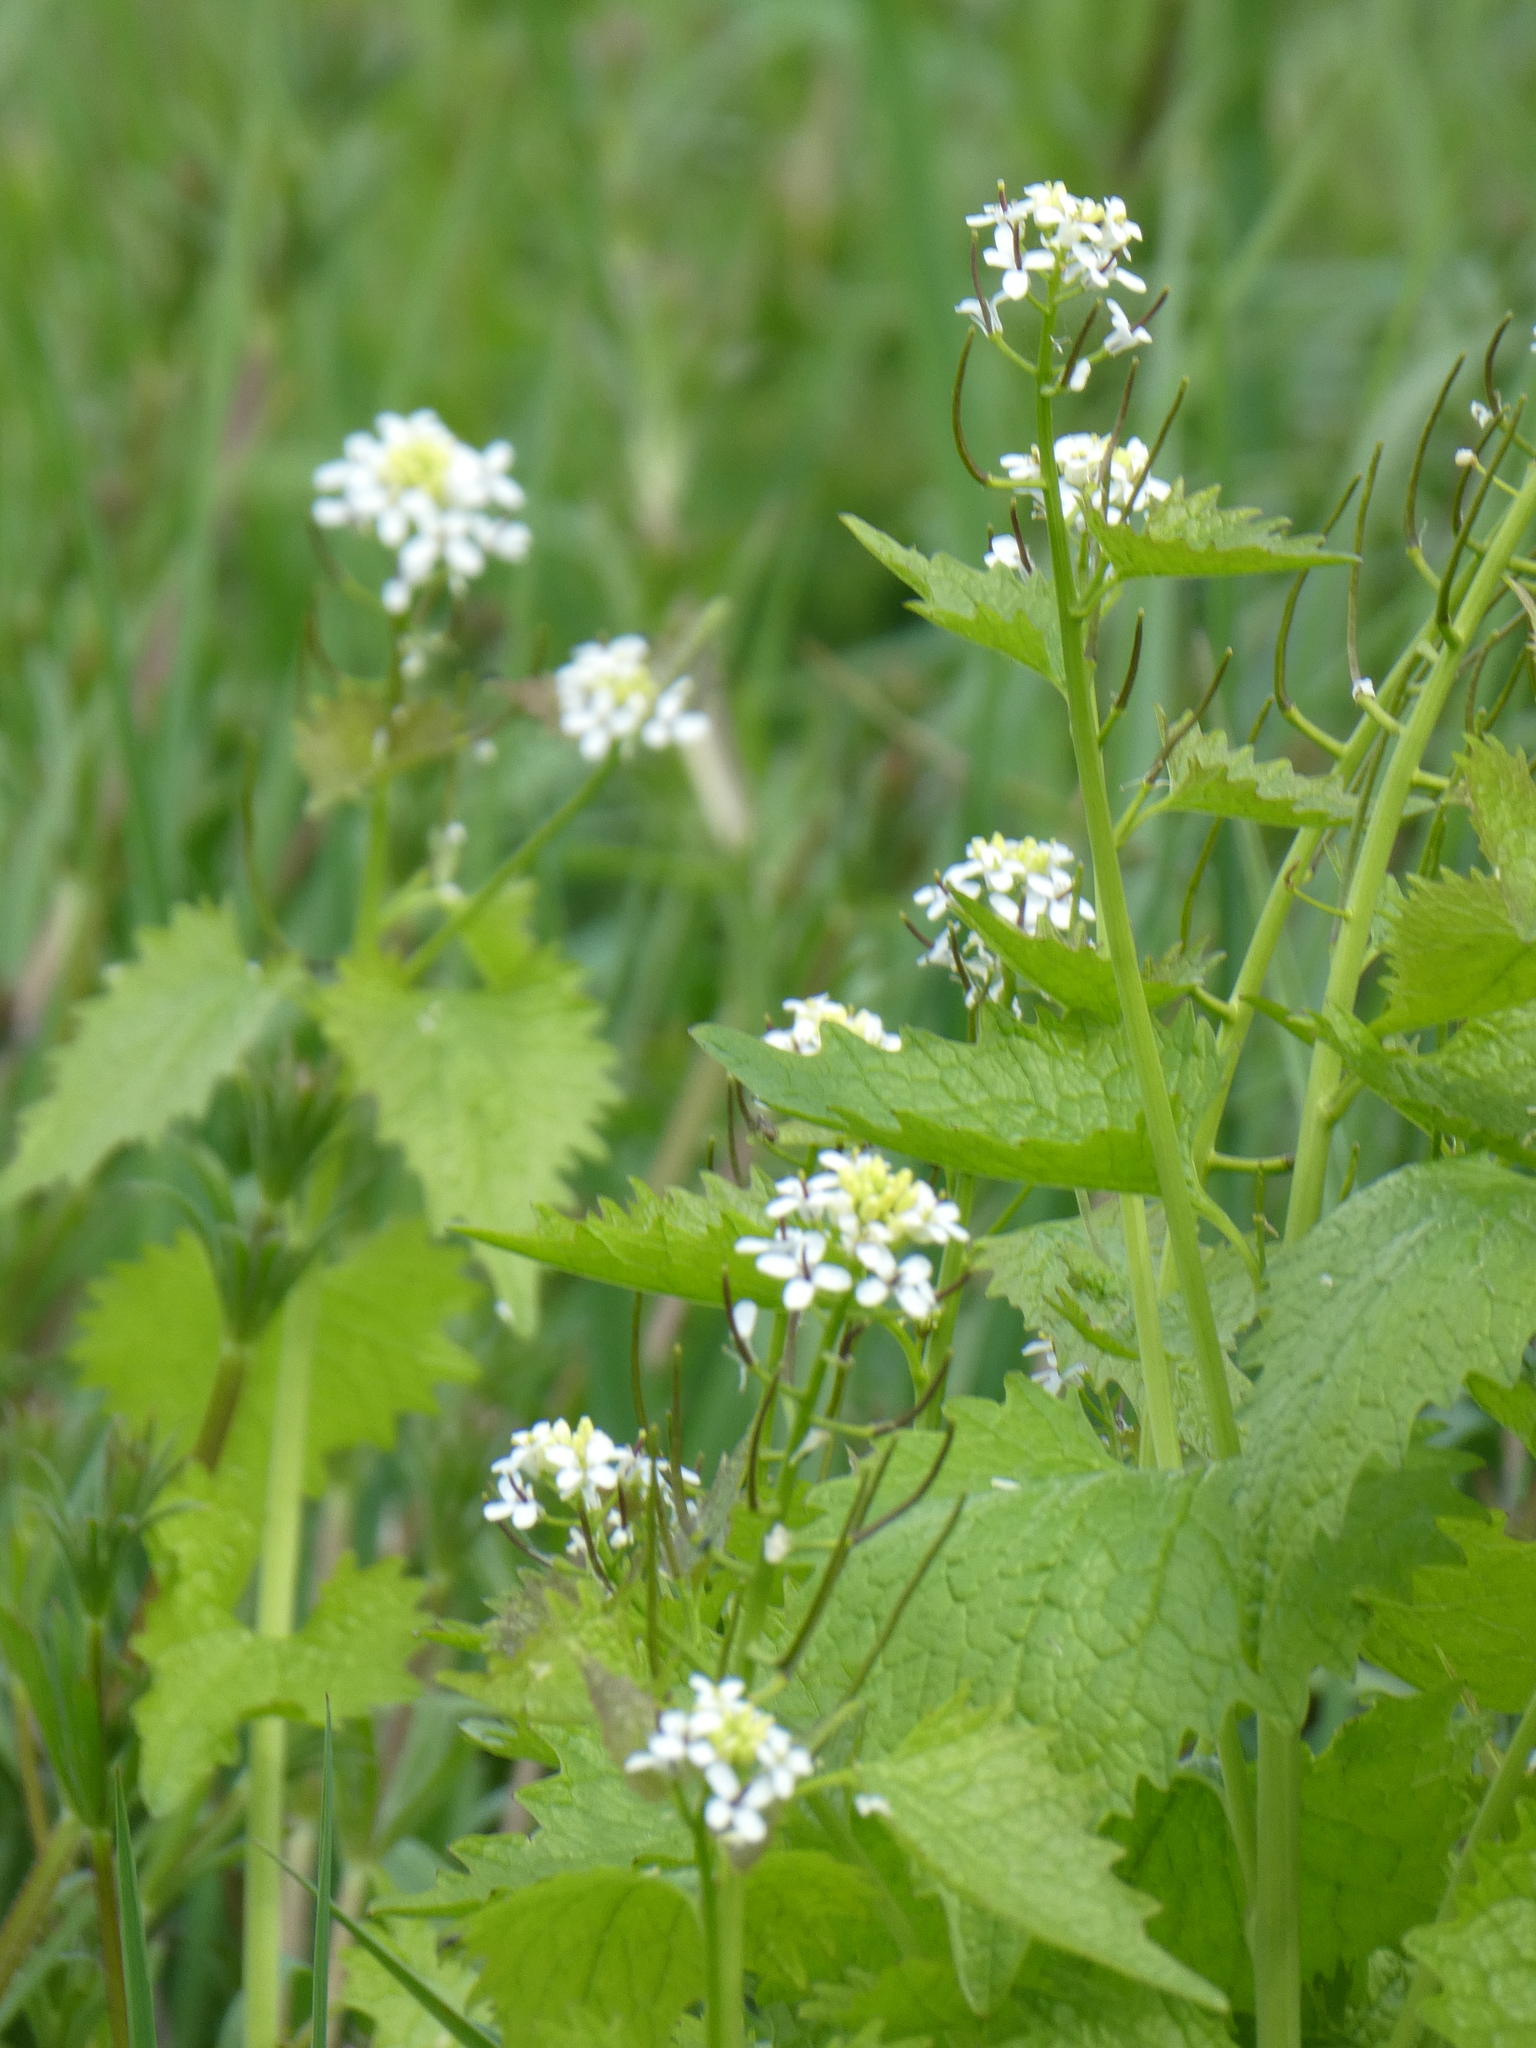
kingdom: Plantae
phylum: Tracheophyta
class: Magnoliopsida
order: Brassicales
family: Brassicaceae
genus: Alliaria
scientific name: Alliaria petiolata
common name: Garlic mustard
